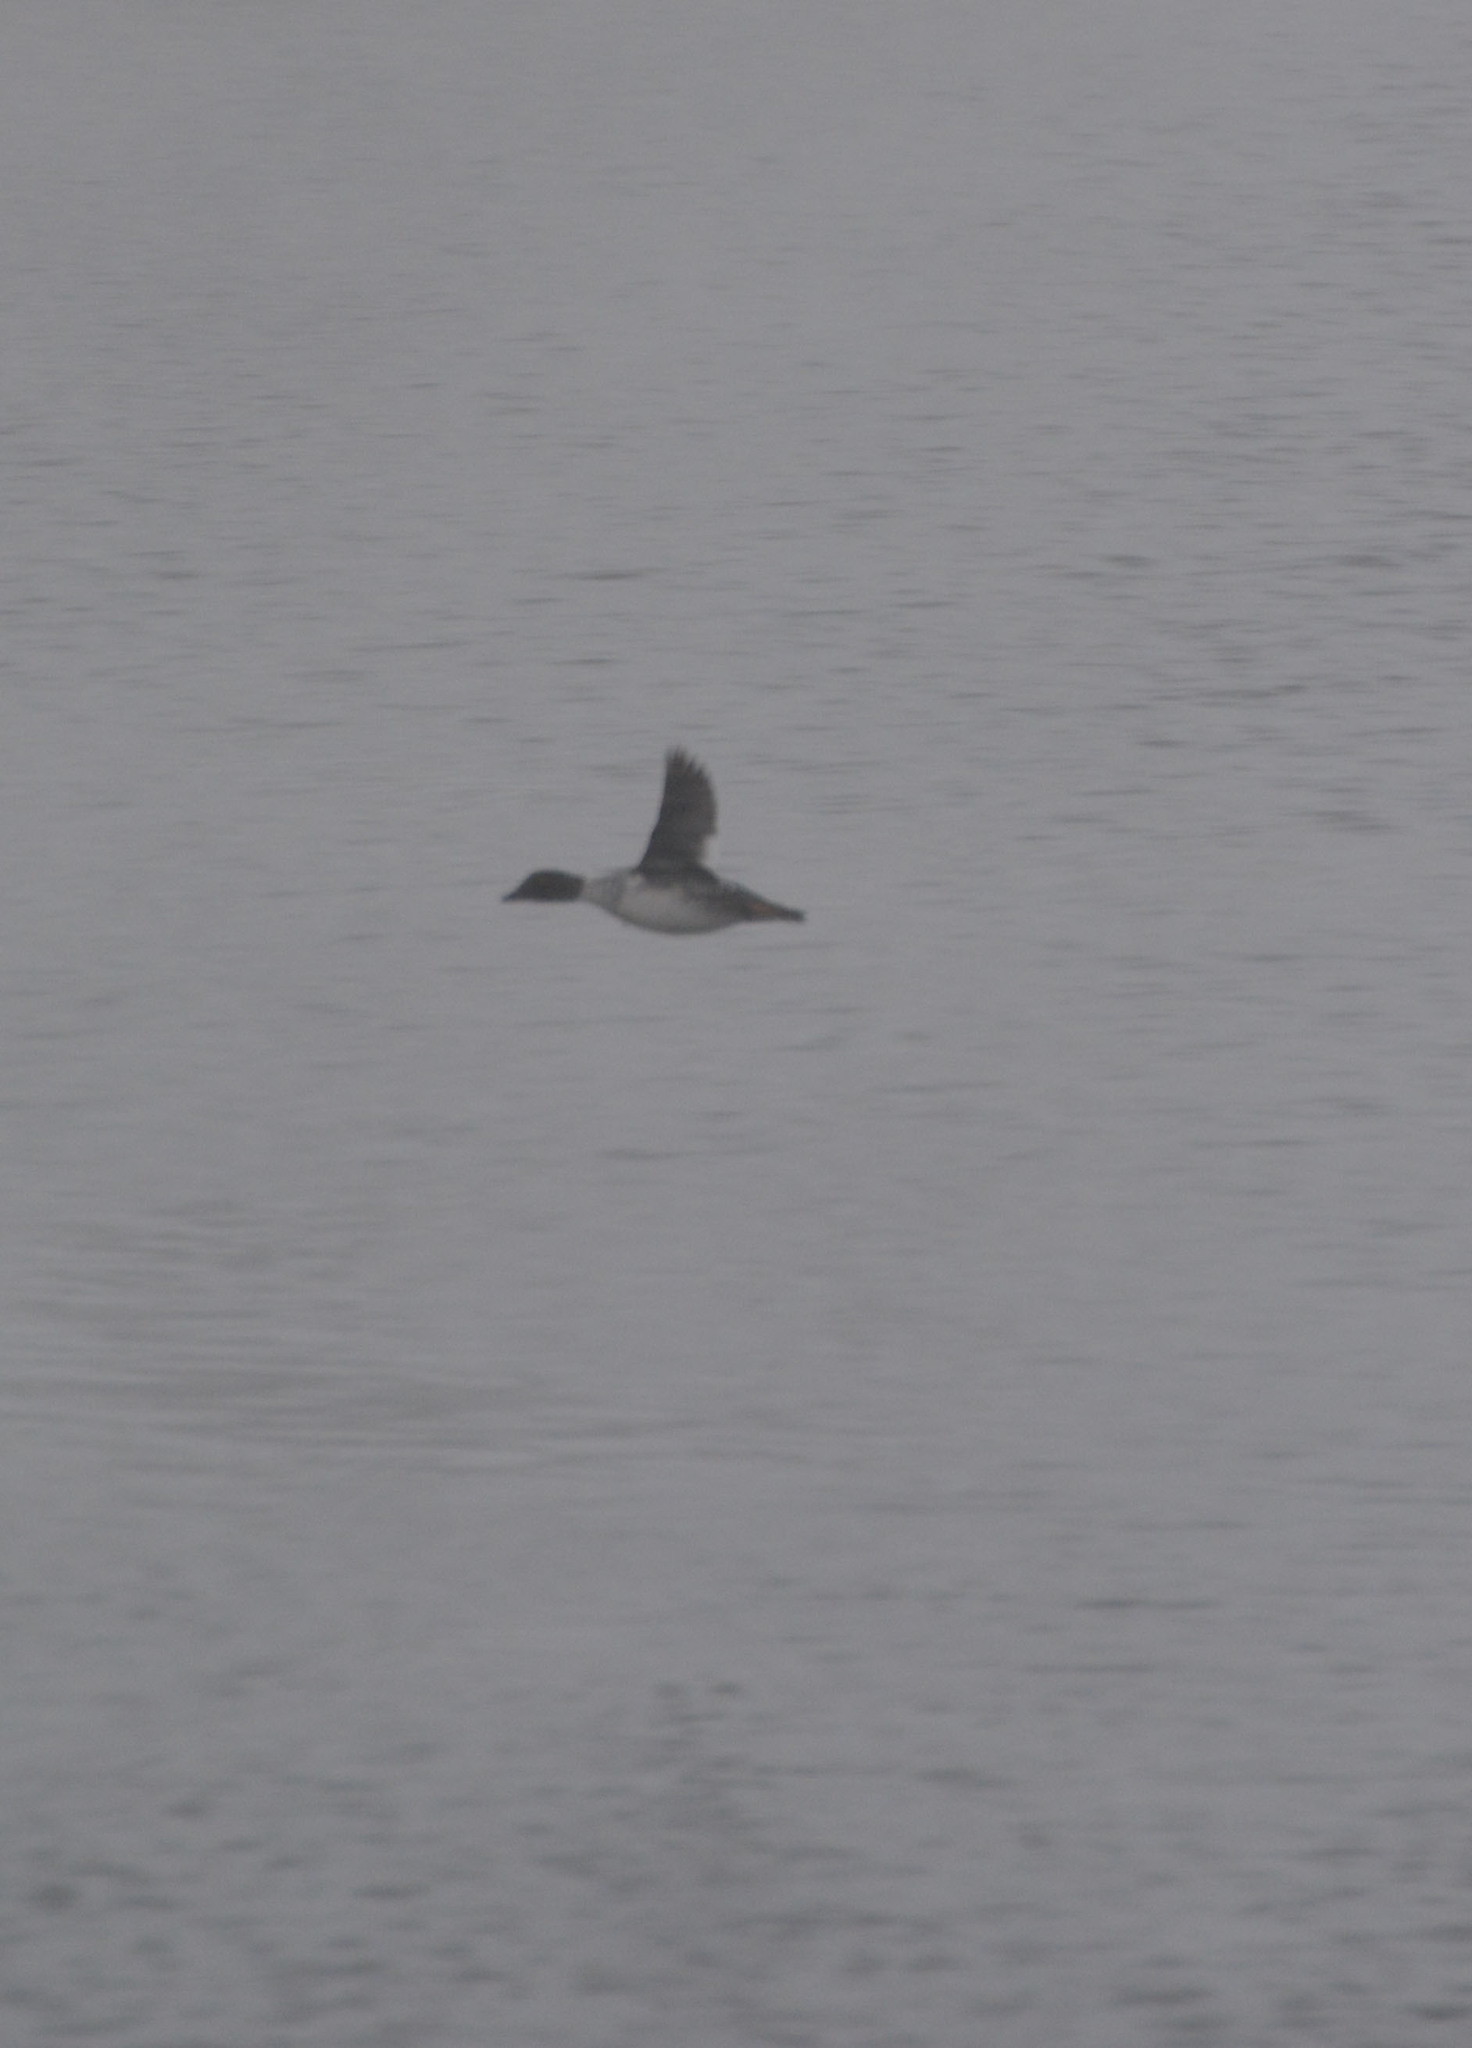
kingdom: Animalia
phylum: Chordata
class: Aves
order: Anseriformes
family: Anatidae
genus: Bucephala
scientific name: Bucephala clangula
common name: Common goldeneye
